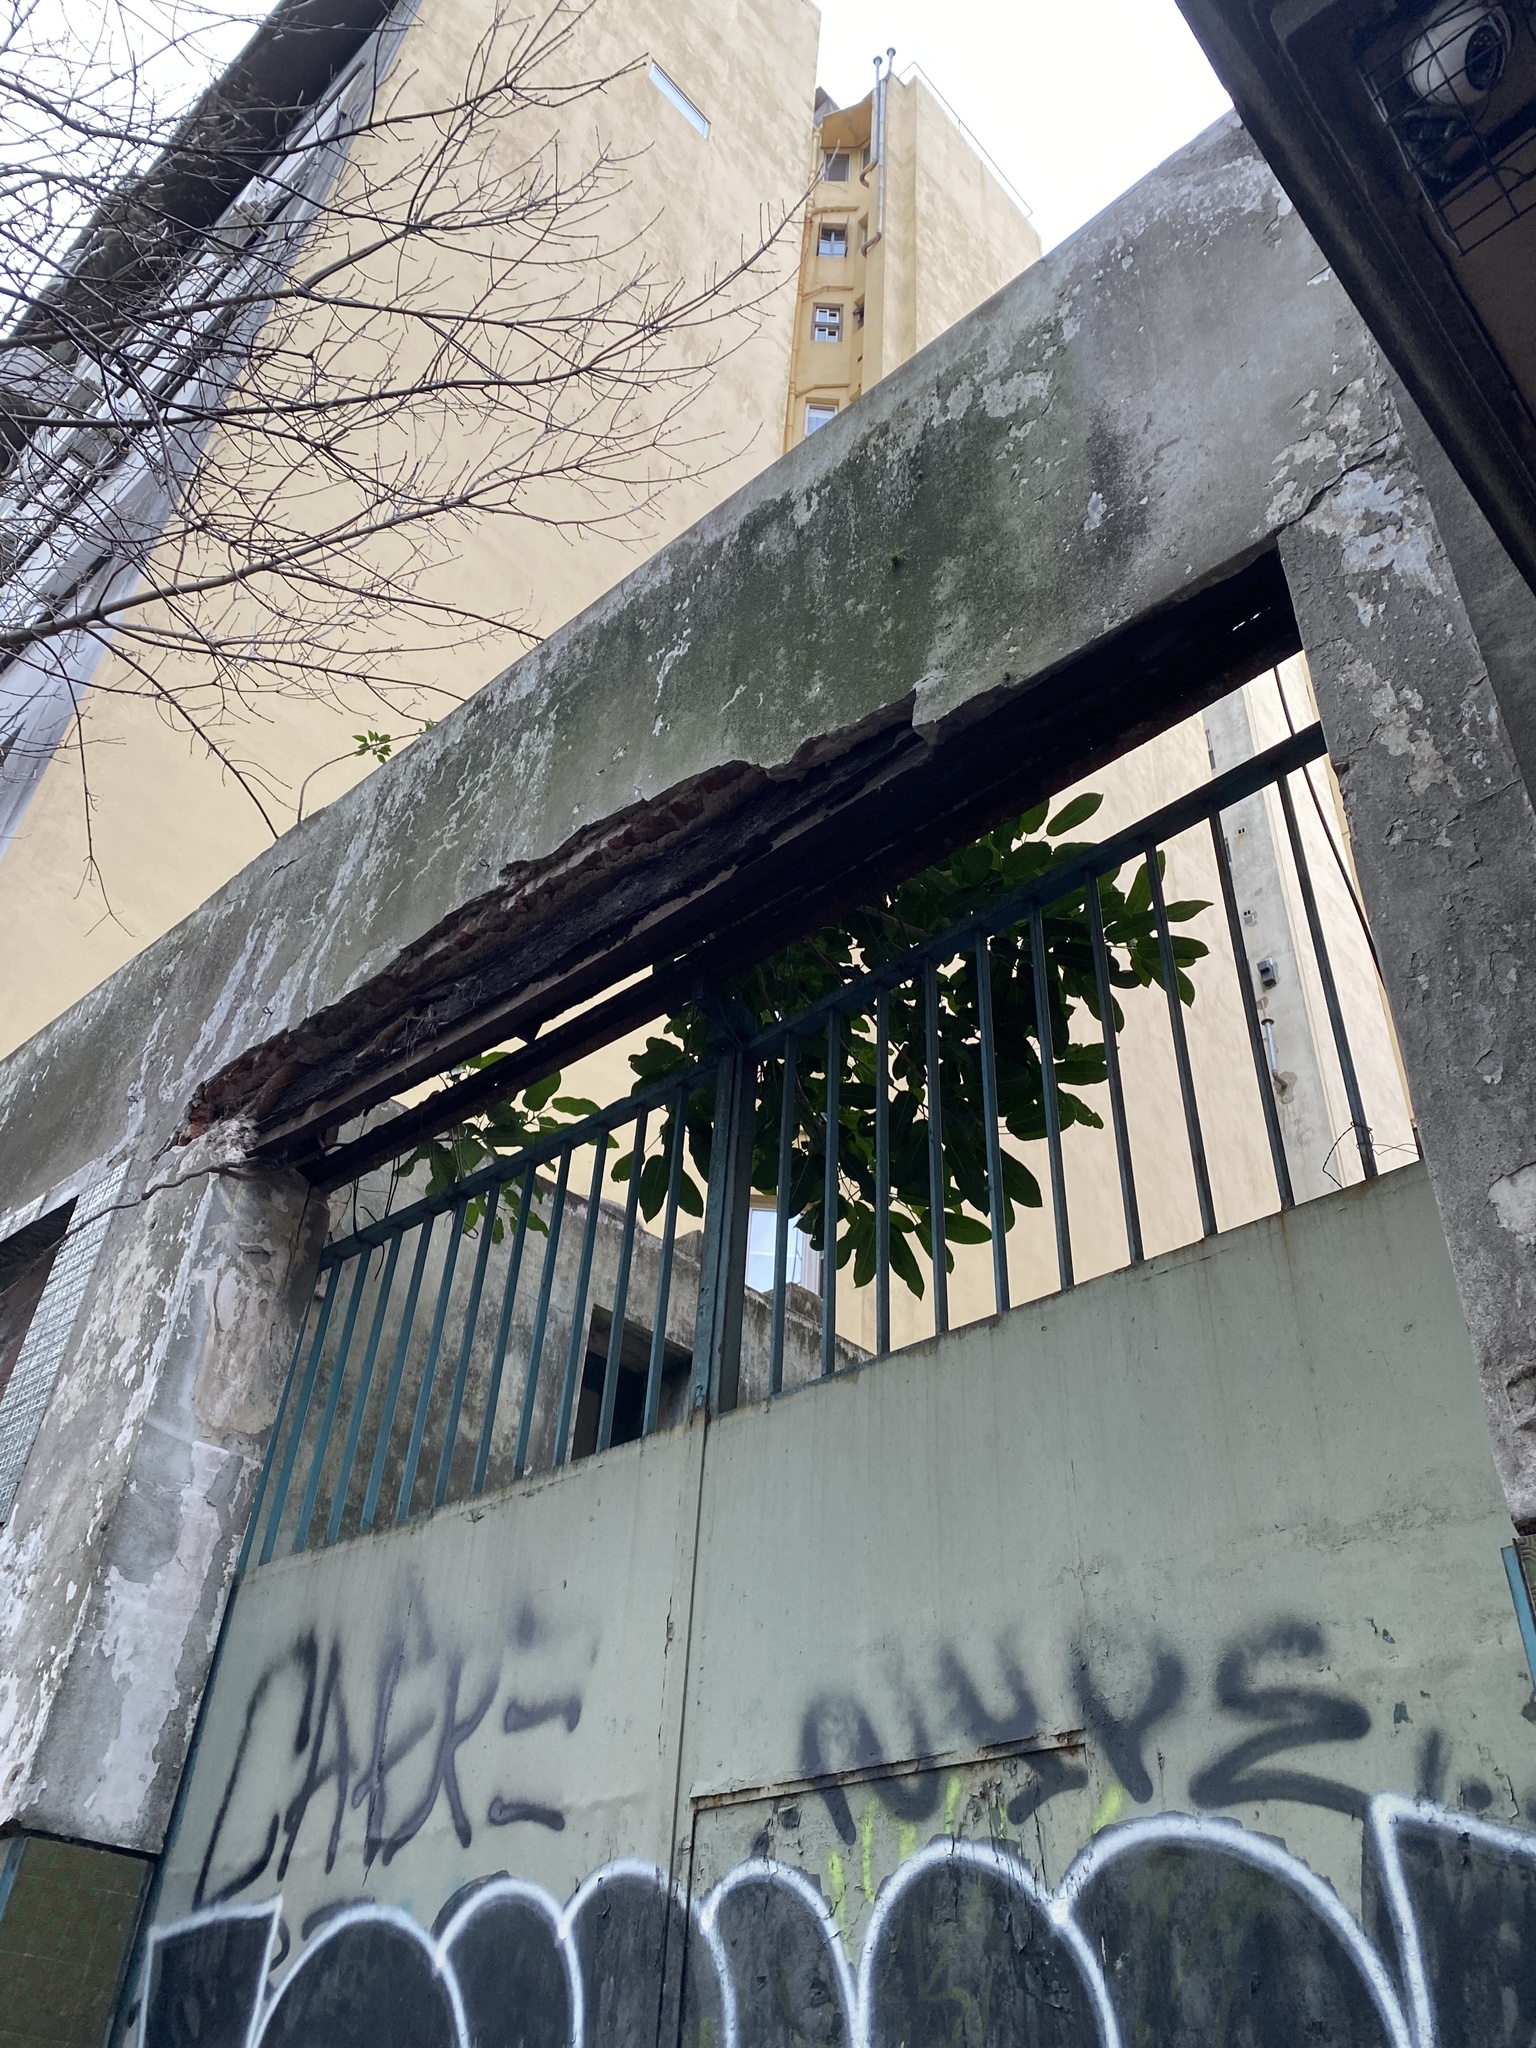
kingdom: Plantae
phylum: Tracheophyta
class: Magnoliopsida
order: Rosales
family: Moraceae
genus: Ficus
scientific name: Ficus luschnathiana
